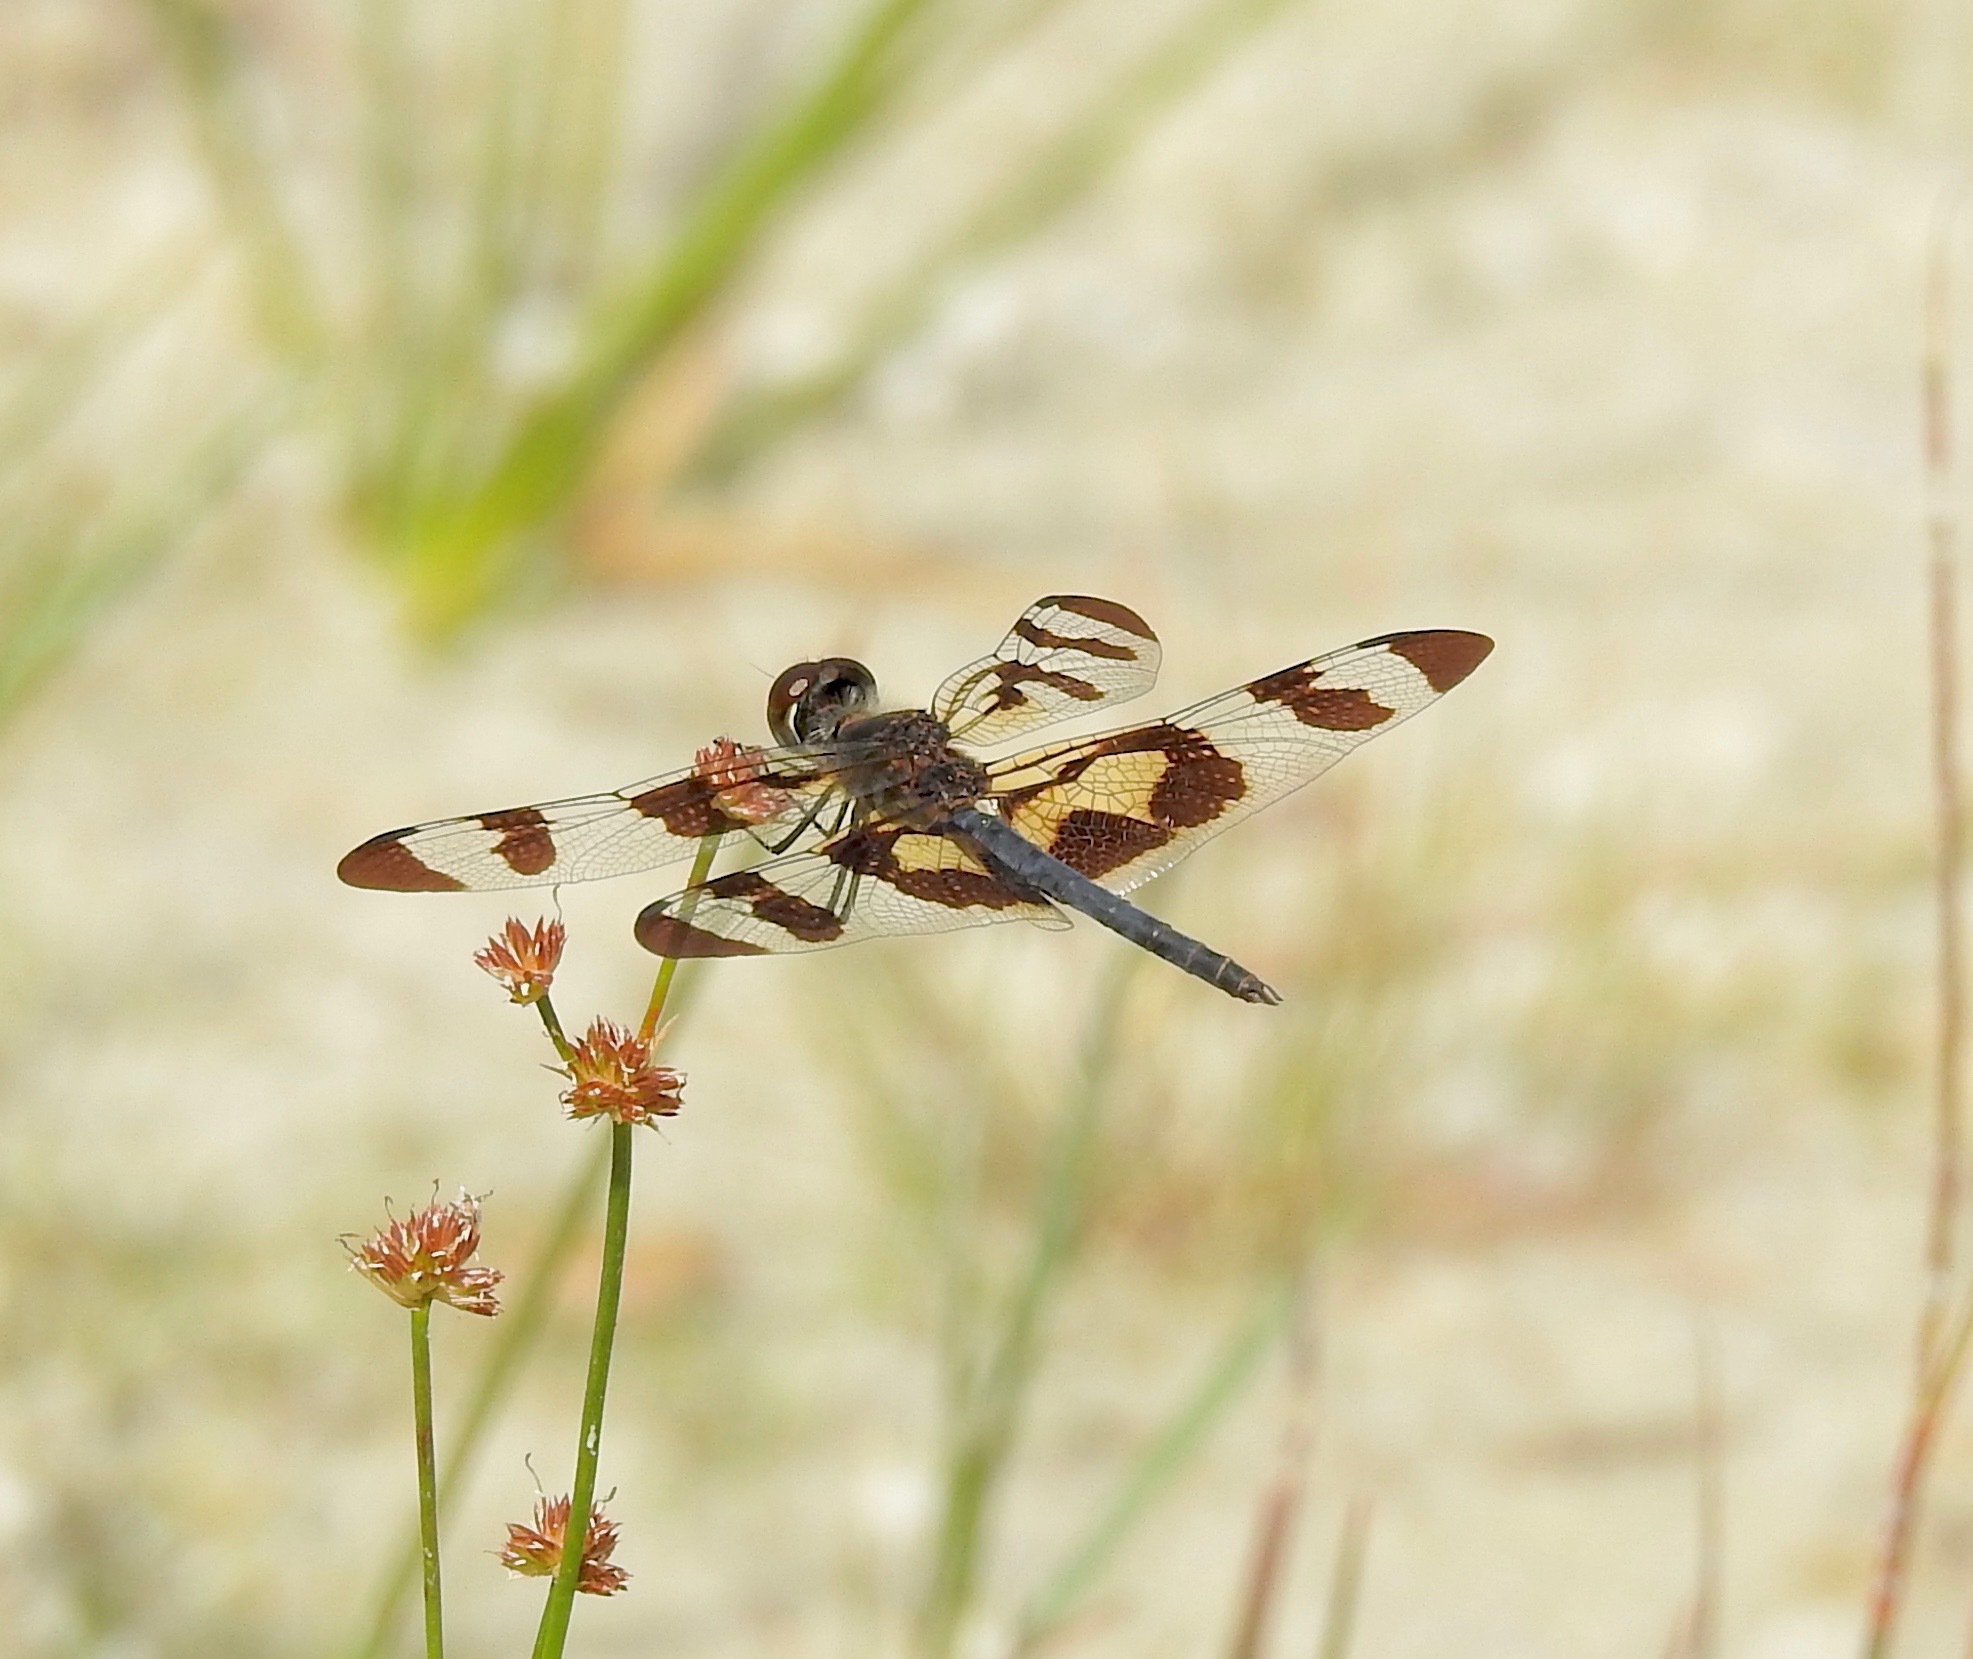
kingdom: Animalia
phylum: Arthropoda
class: Insecta
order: Odonata
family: Libellulidae
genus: Celithemis
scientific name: Celithemis fasciata
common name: Banded pennant
